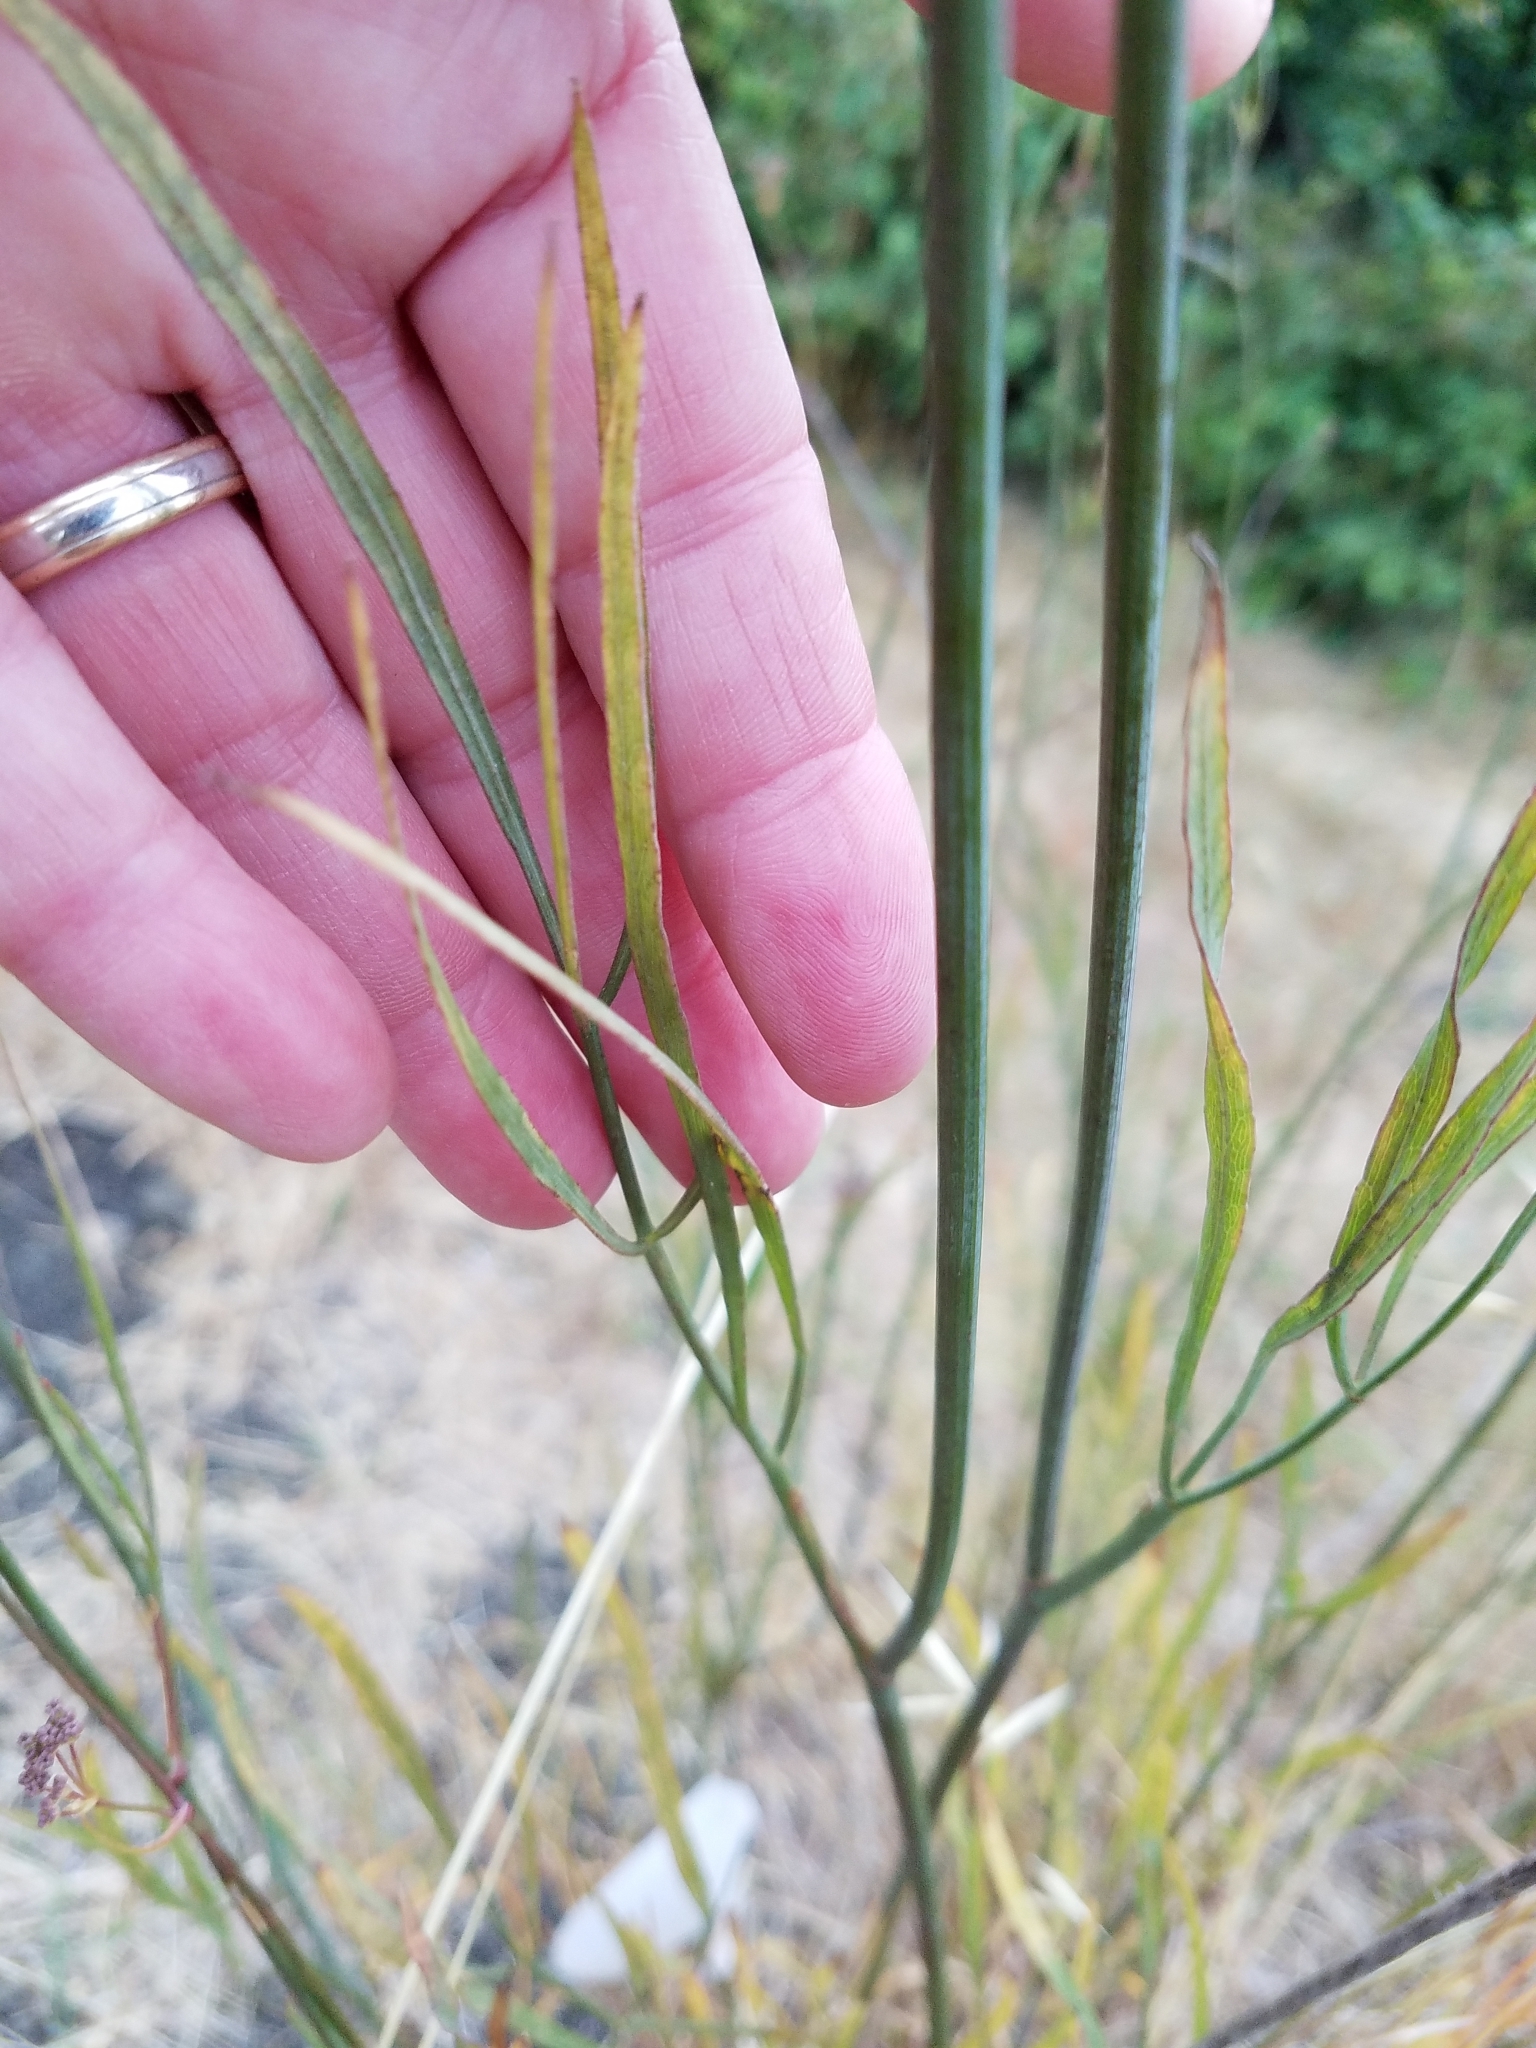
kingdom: Plantae
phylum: Tracheophyta
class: Magnoliopsida
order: Apiales
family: Apiaceae
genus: Perideridia
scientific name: Perideridia kelloggii
